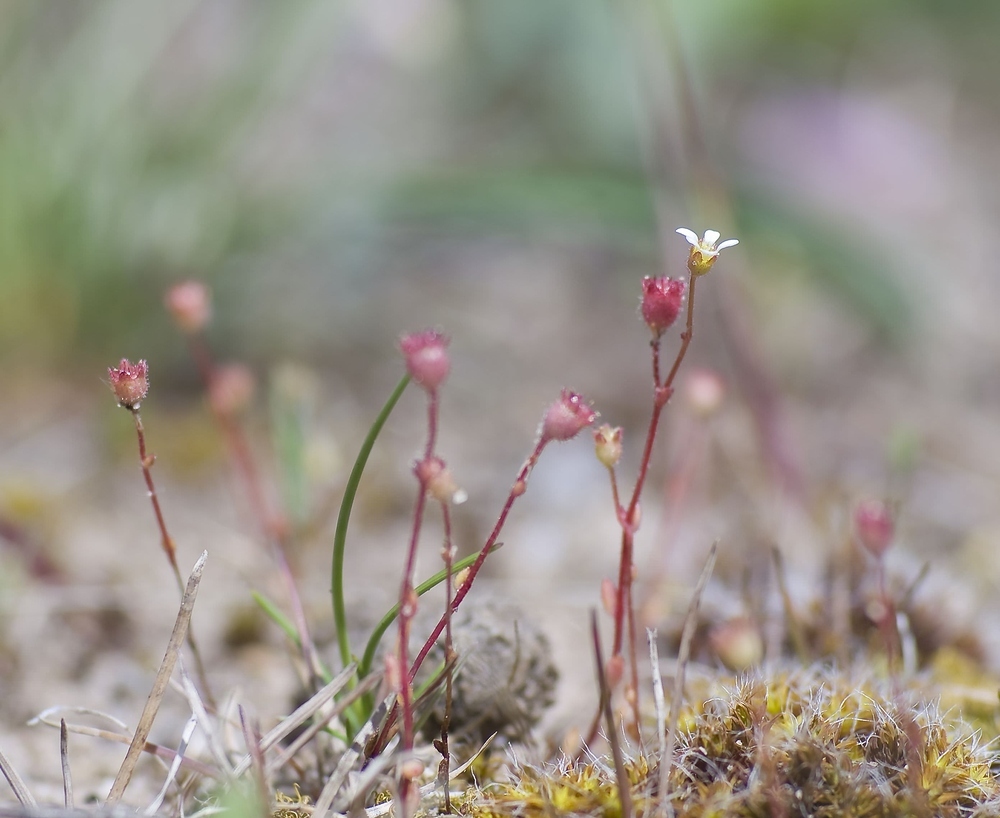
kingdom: Plantae
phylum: Tracheophyta
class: Magnoliopsida
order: Saxifragales
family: Saxifragaceae
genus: Saxifraga
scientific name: Saxifraga tridactylites
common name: Rue-leaved saxifrage
